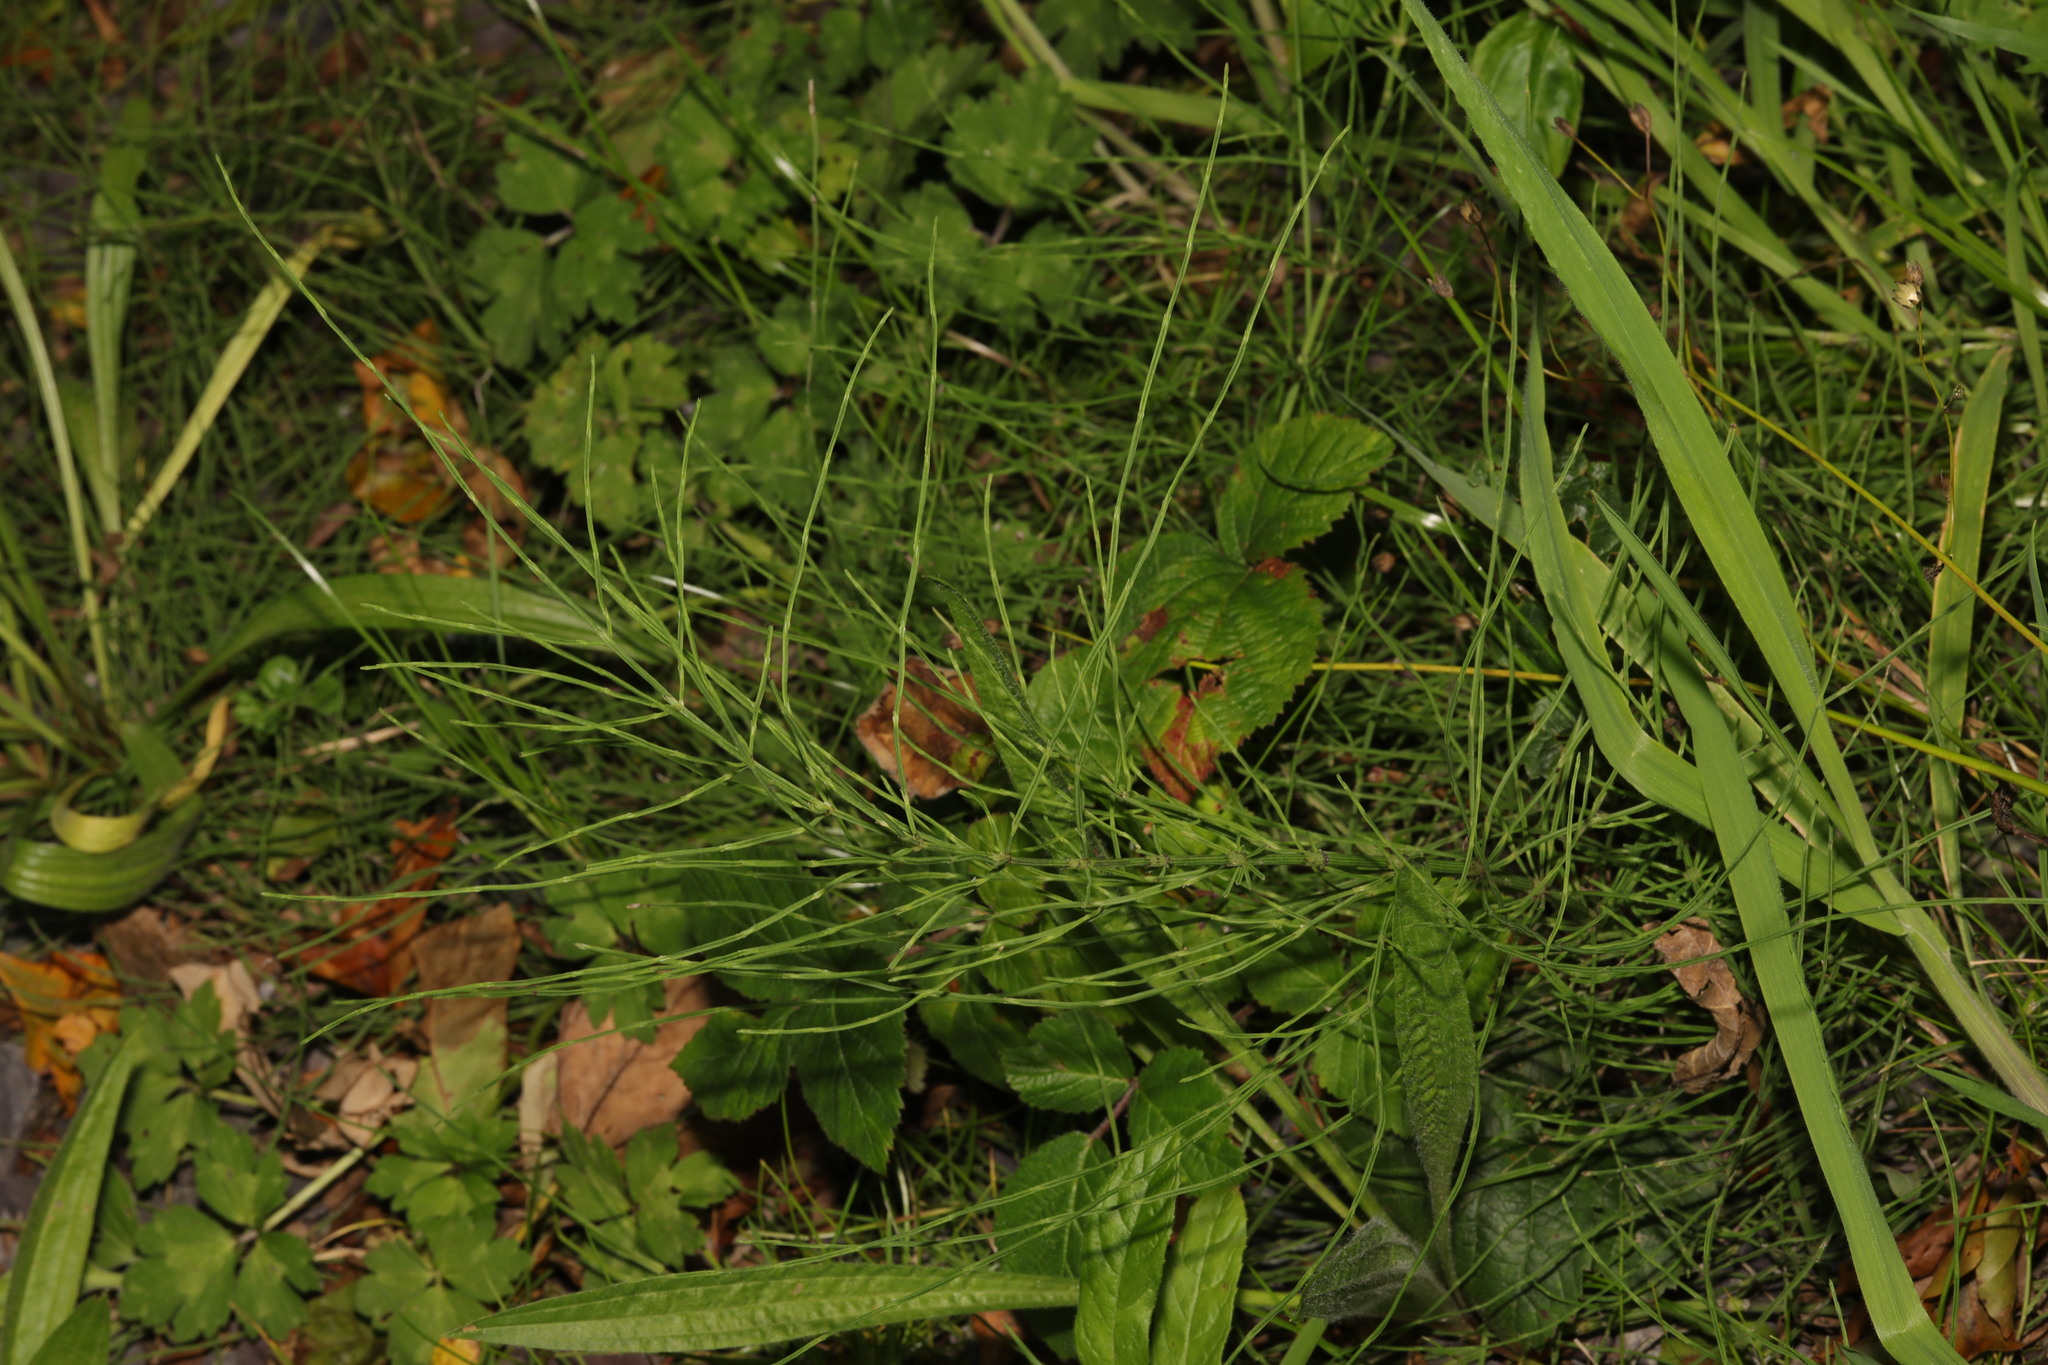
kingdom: Plantae
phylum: Tracheophyta
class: Polypodiopsida
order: Equisetales
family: Equisetaceae
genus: Equisetum
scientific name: Equisetum arvense
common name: Field horsetail
